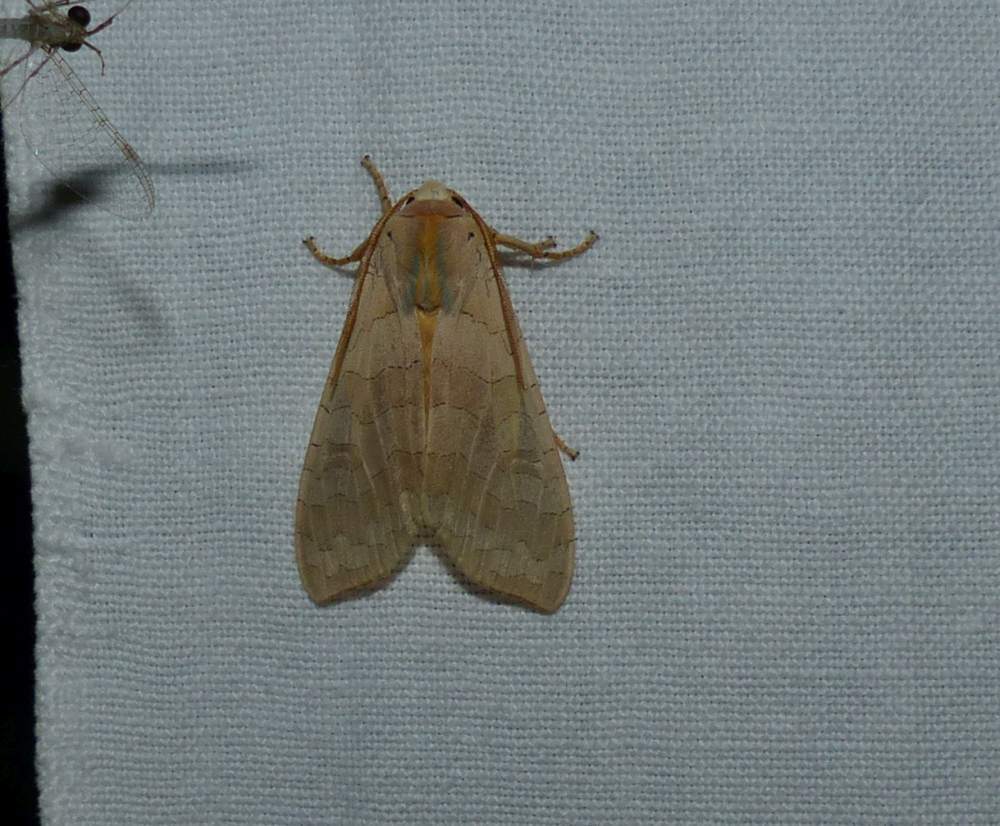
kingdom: Animalia
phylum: Arthropoda
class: Insecta
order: Lepidoptera
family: Erebidae
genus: Halysidota
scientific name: Halysidota tessellaris
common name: Banded tussock moth
